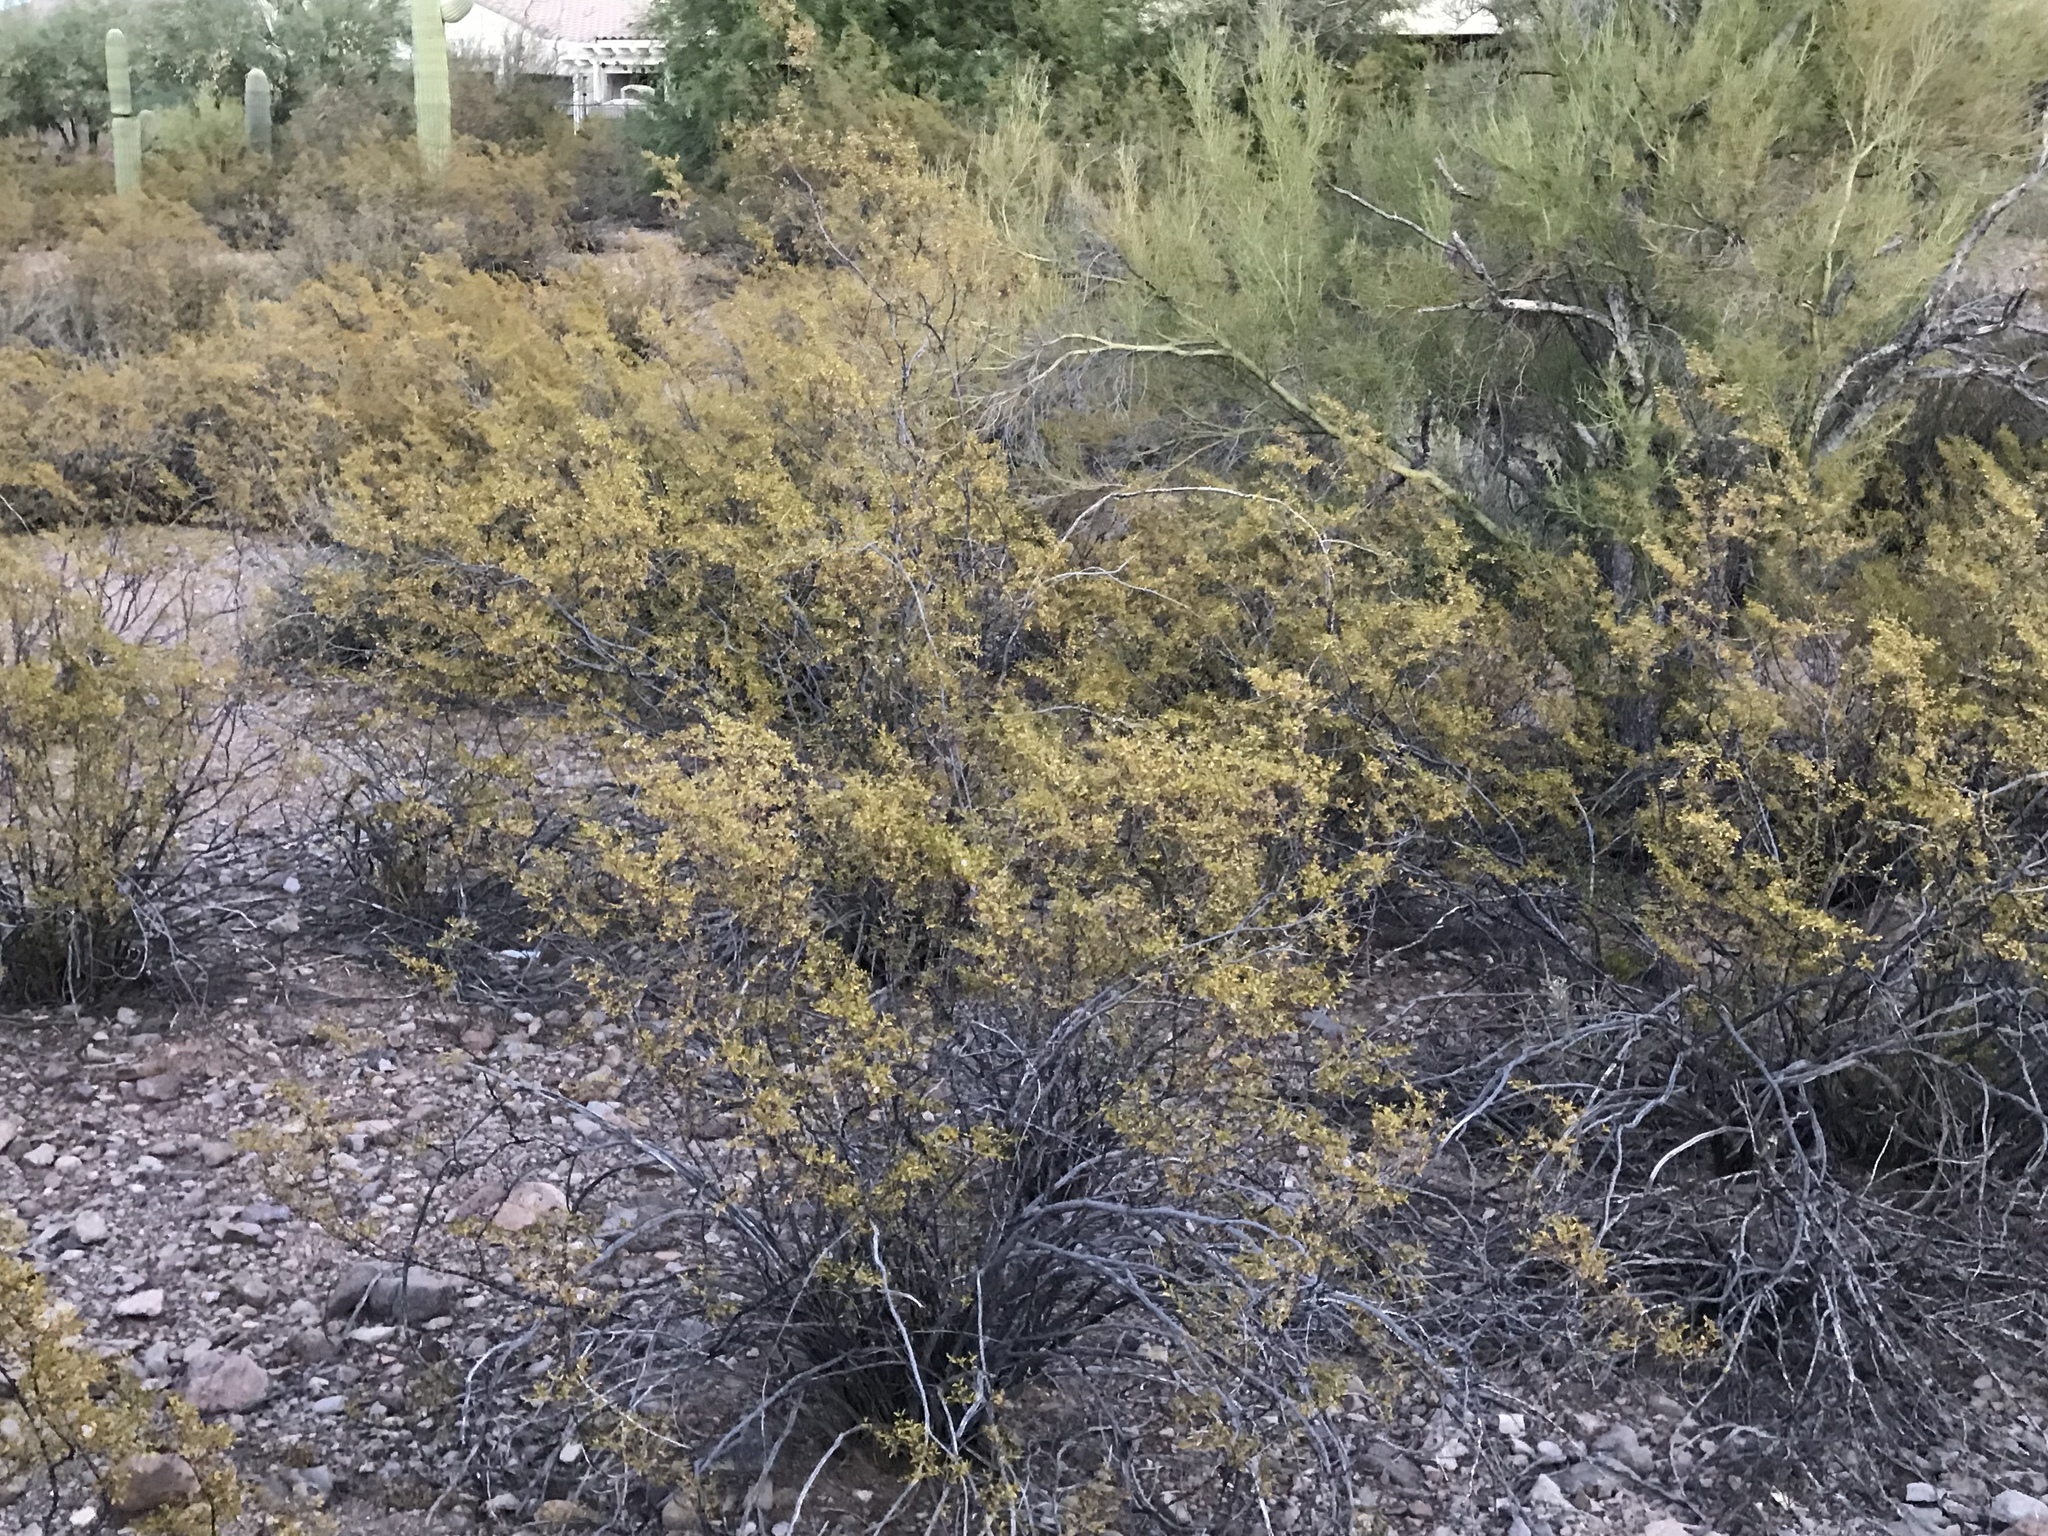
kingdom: Plantae
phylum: Tracheophyta
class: Magnoliopsida
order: Zygophyllales
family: Zygophyllaceae
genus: Larrea
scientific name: Larrea tridentata
